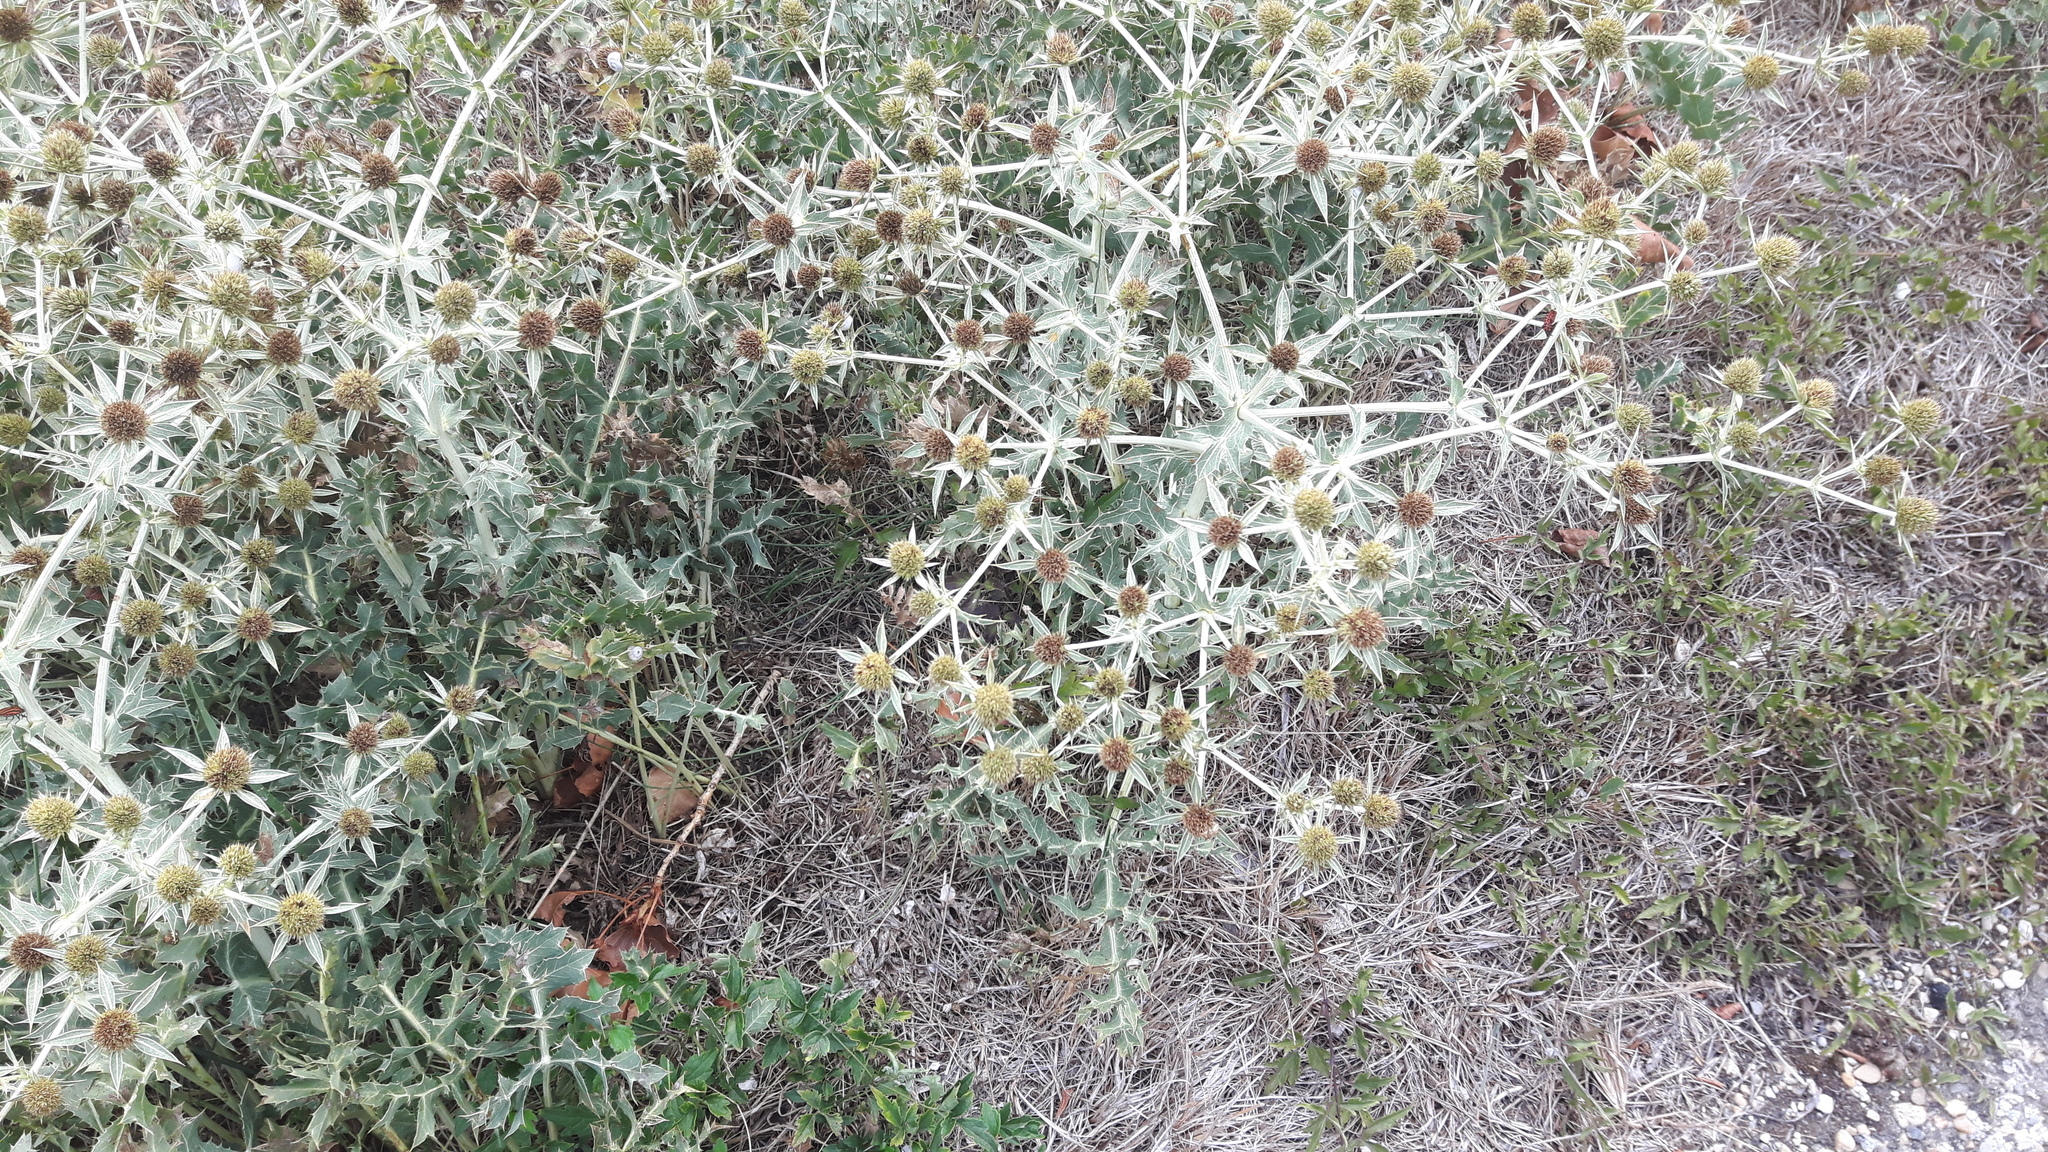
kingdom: Plantae
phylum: Tracheophyta
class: Magnoliopsida
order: Apiales
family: Apiaceae
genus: Eryngium
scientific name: Eryngium campestre
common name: Field eryngo
